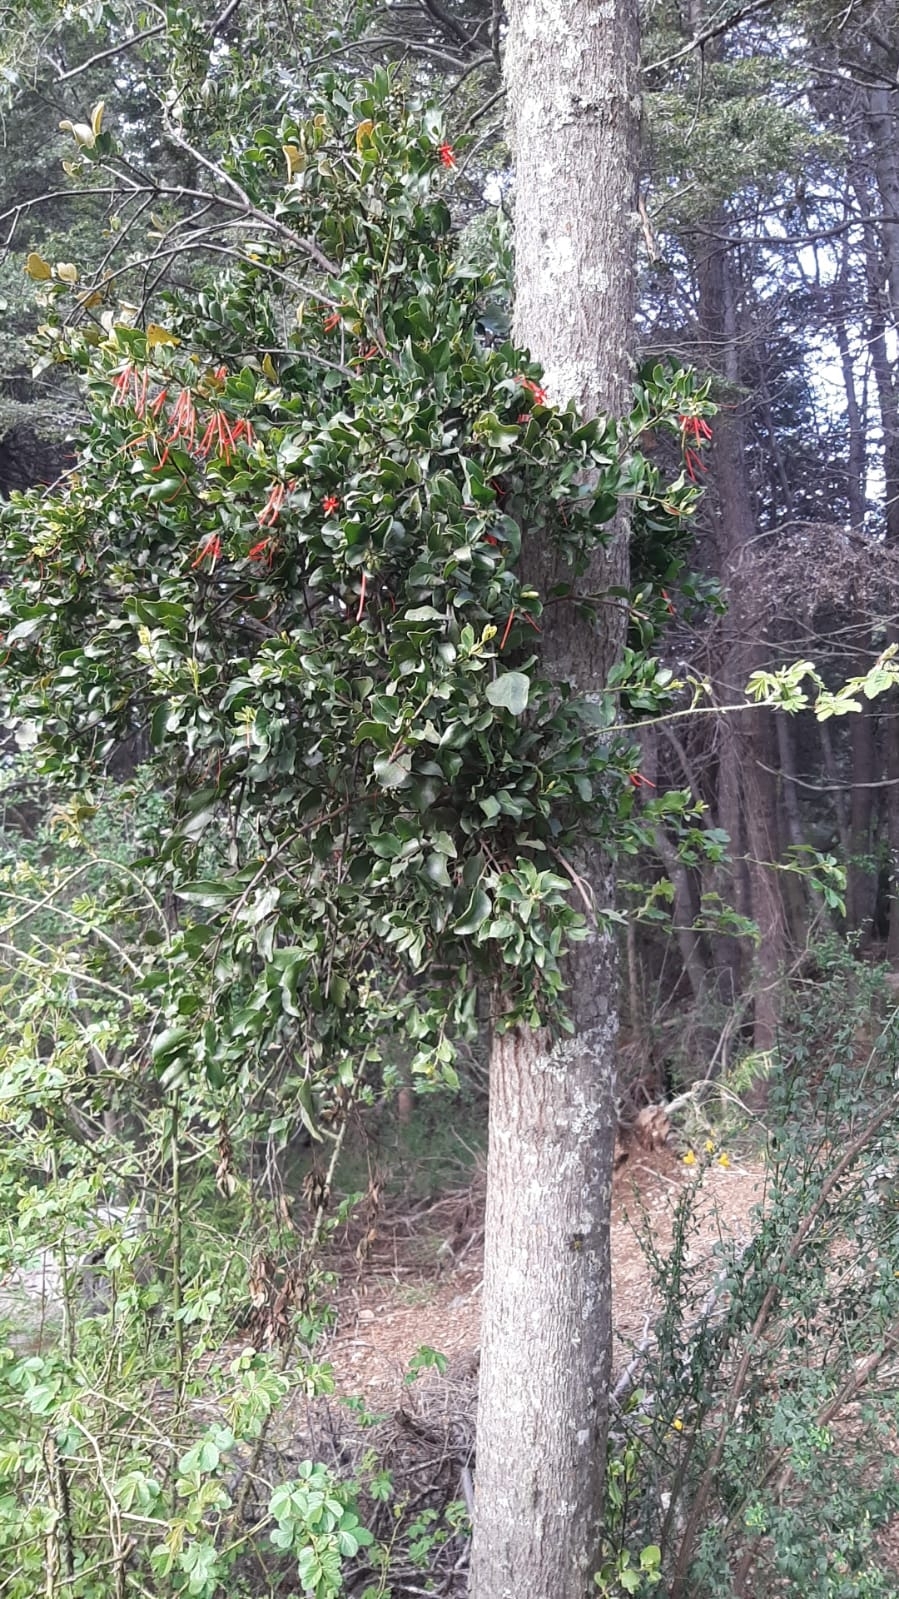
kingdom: Plantae
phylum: Tracheophyta
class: Magnoliopsida
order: Santalales
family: Loranthaceae
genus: Tristerix
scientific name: Tristerix corymbosus
